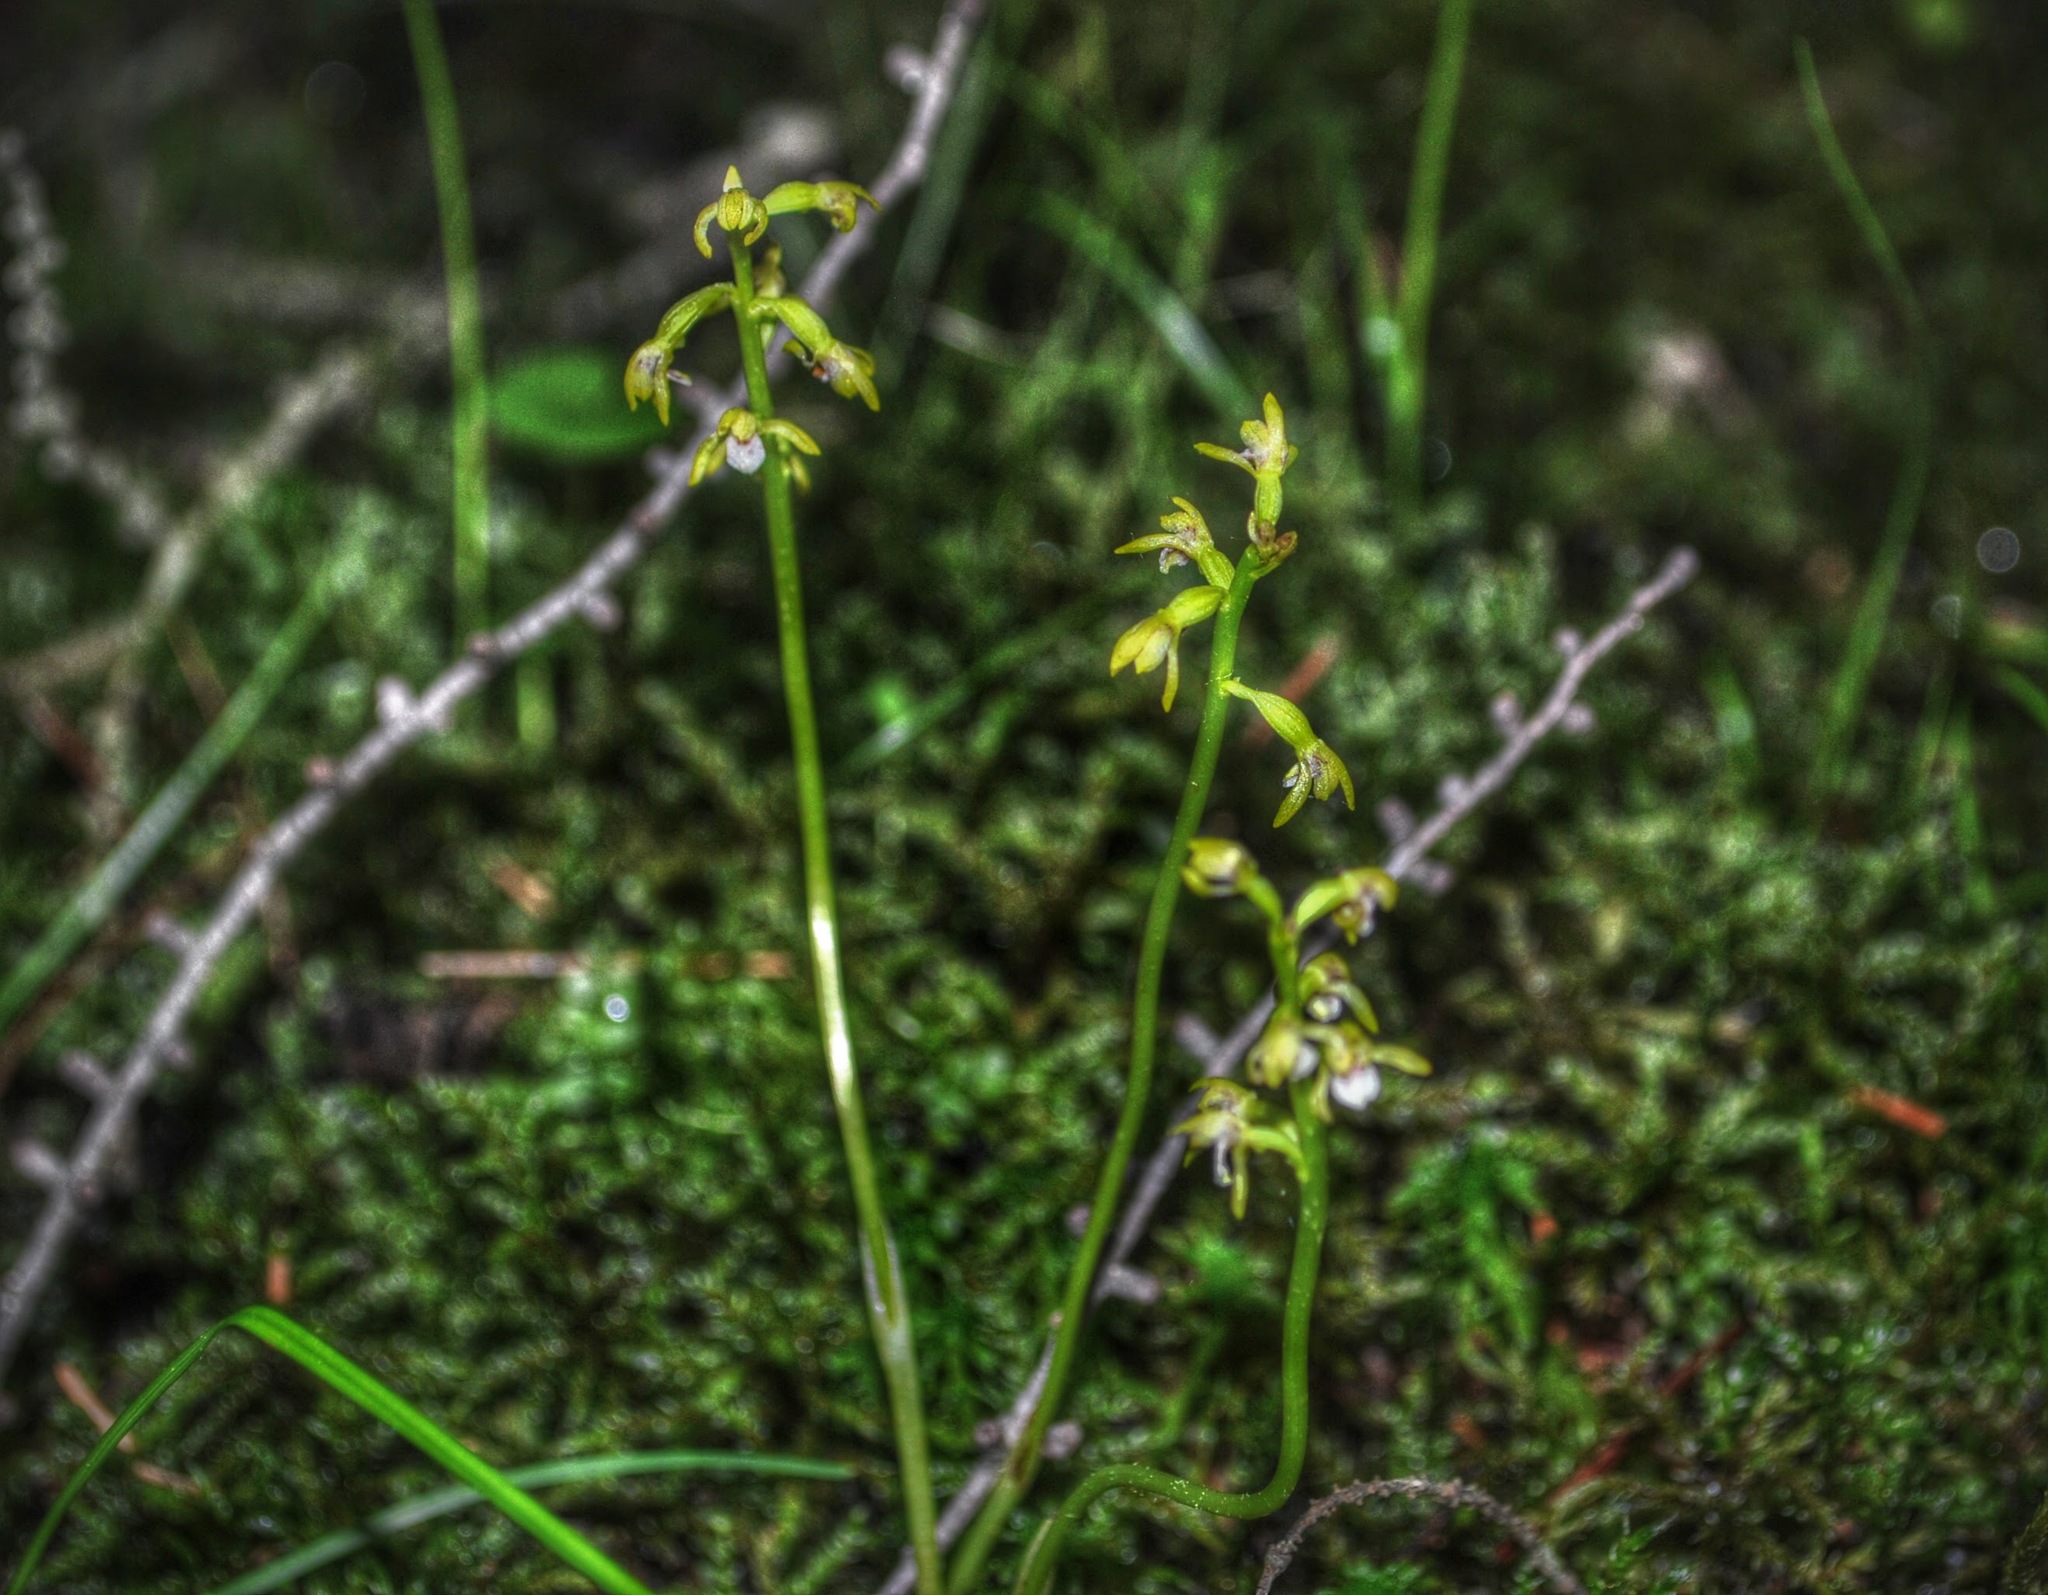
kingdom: Plantae
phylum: Tracheophyta
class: Liliopsida
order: Asparagales
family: Orchidaceae
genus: Corallorhiza
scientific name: Corallorhiza trifida
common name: Yellow coralroot
